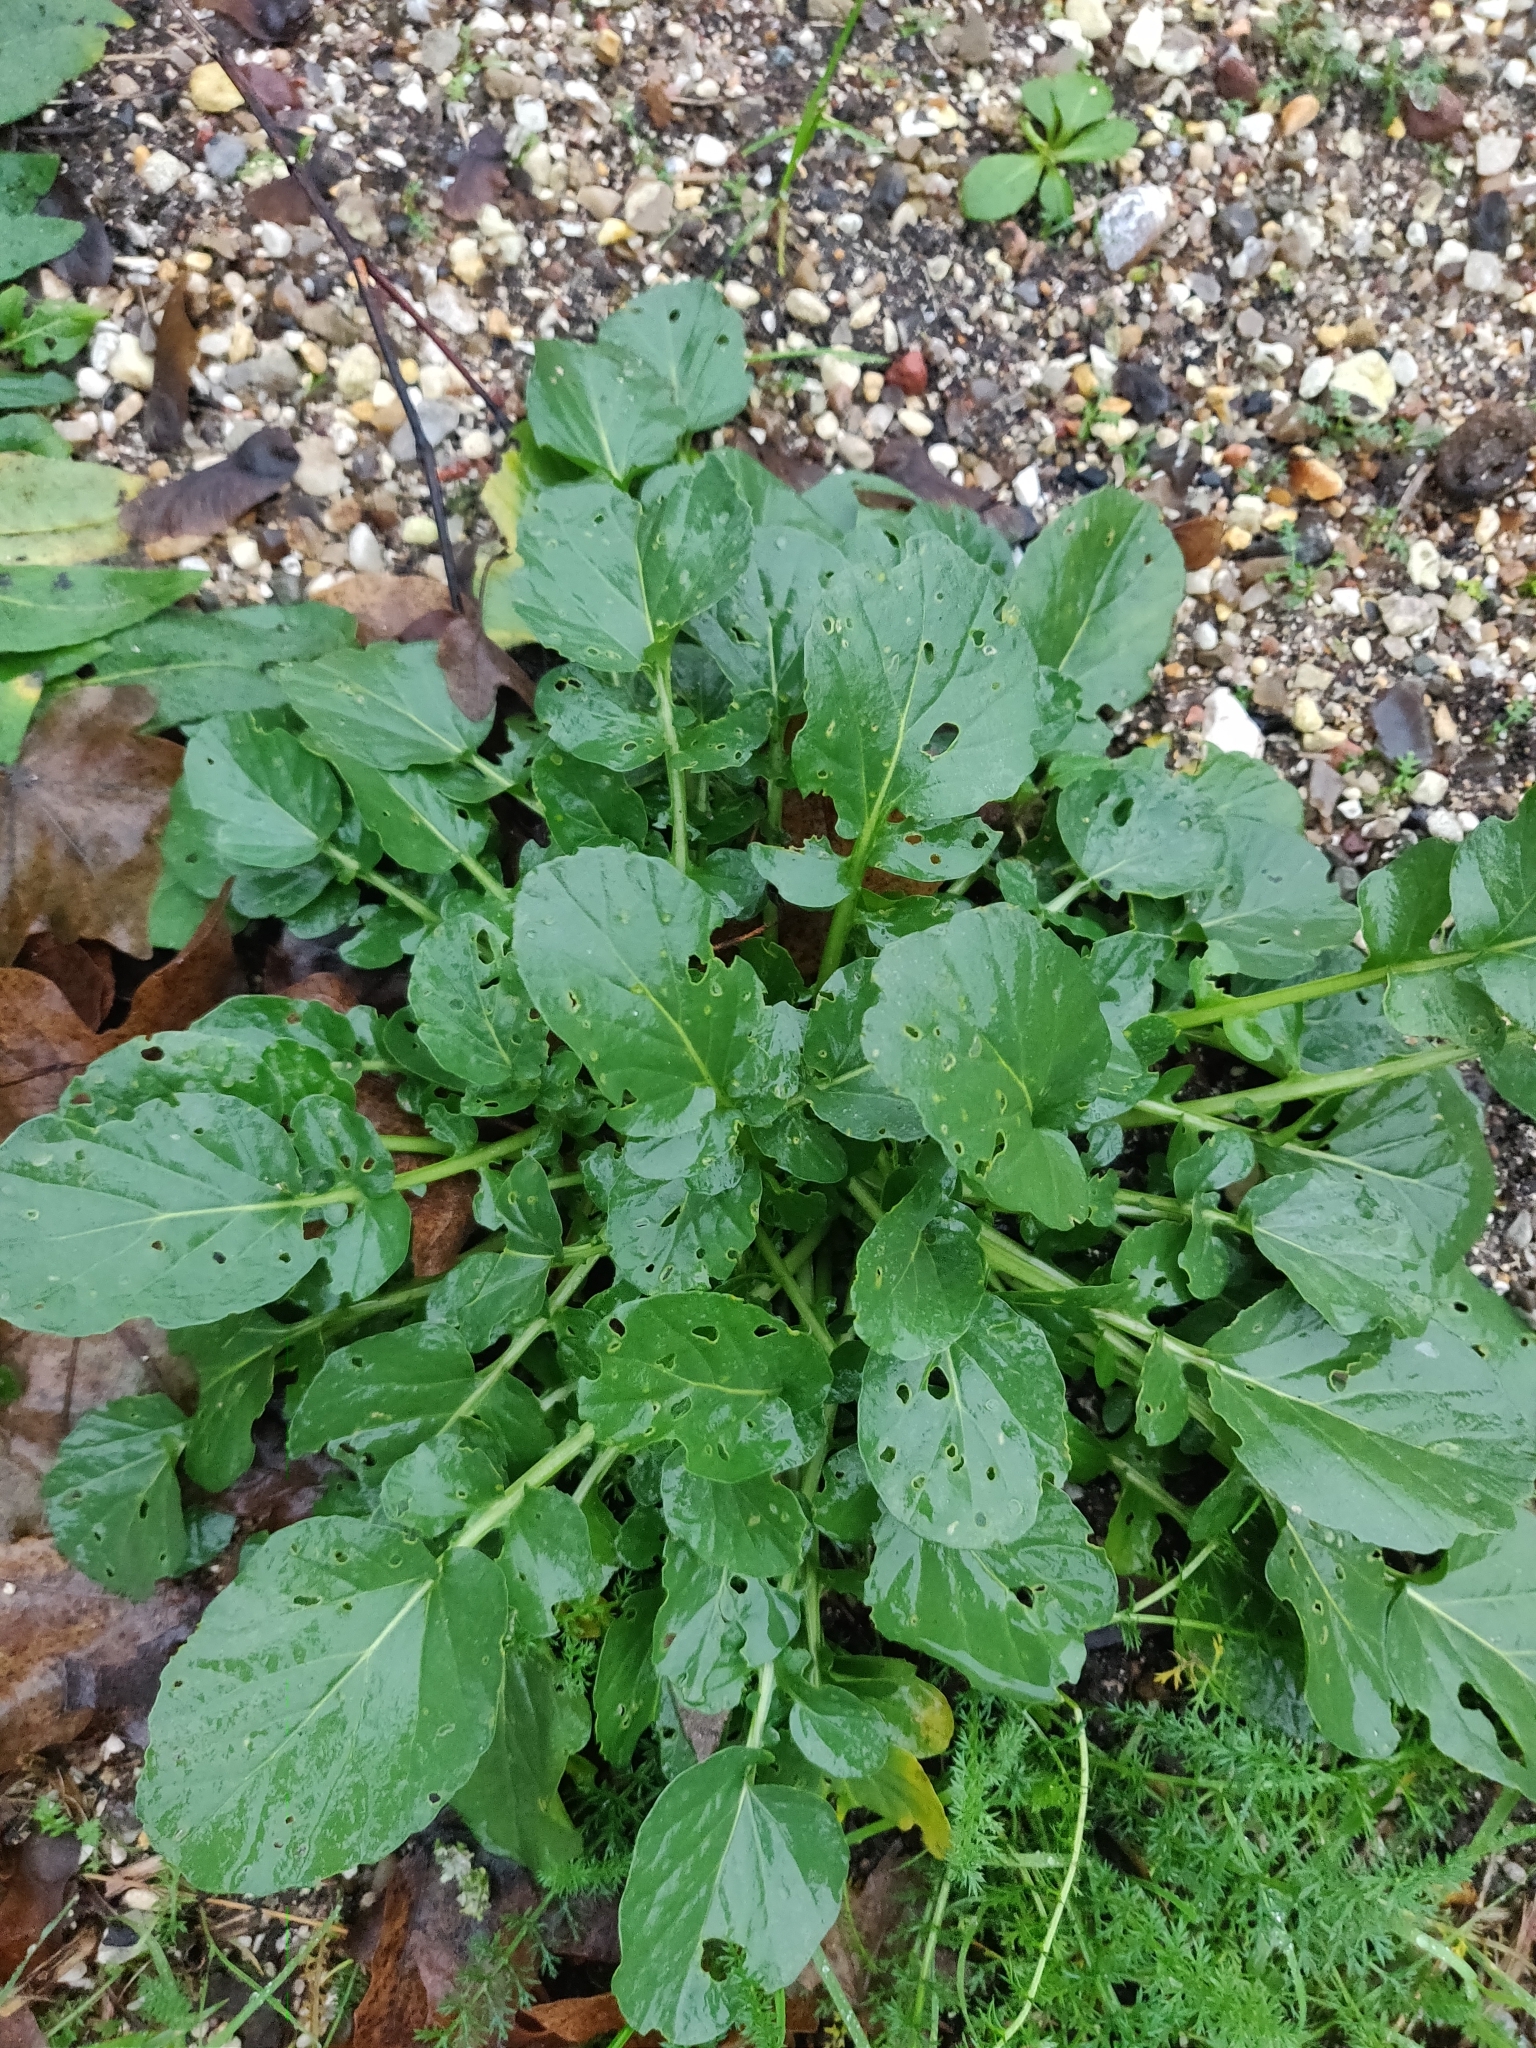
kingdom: Plantae
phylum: Tracheophyta
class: Magnoliopsida
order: Brassicales
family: Brassicaceae
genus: Barbarea
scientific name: Barbarea vulgaris
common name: Cressy-greens
